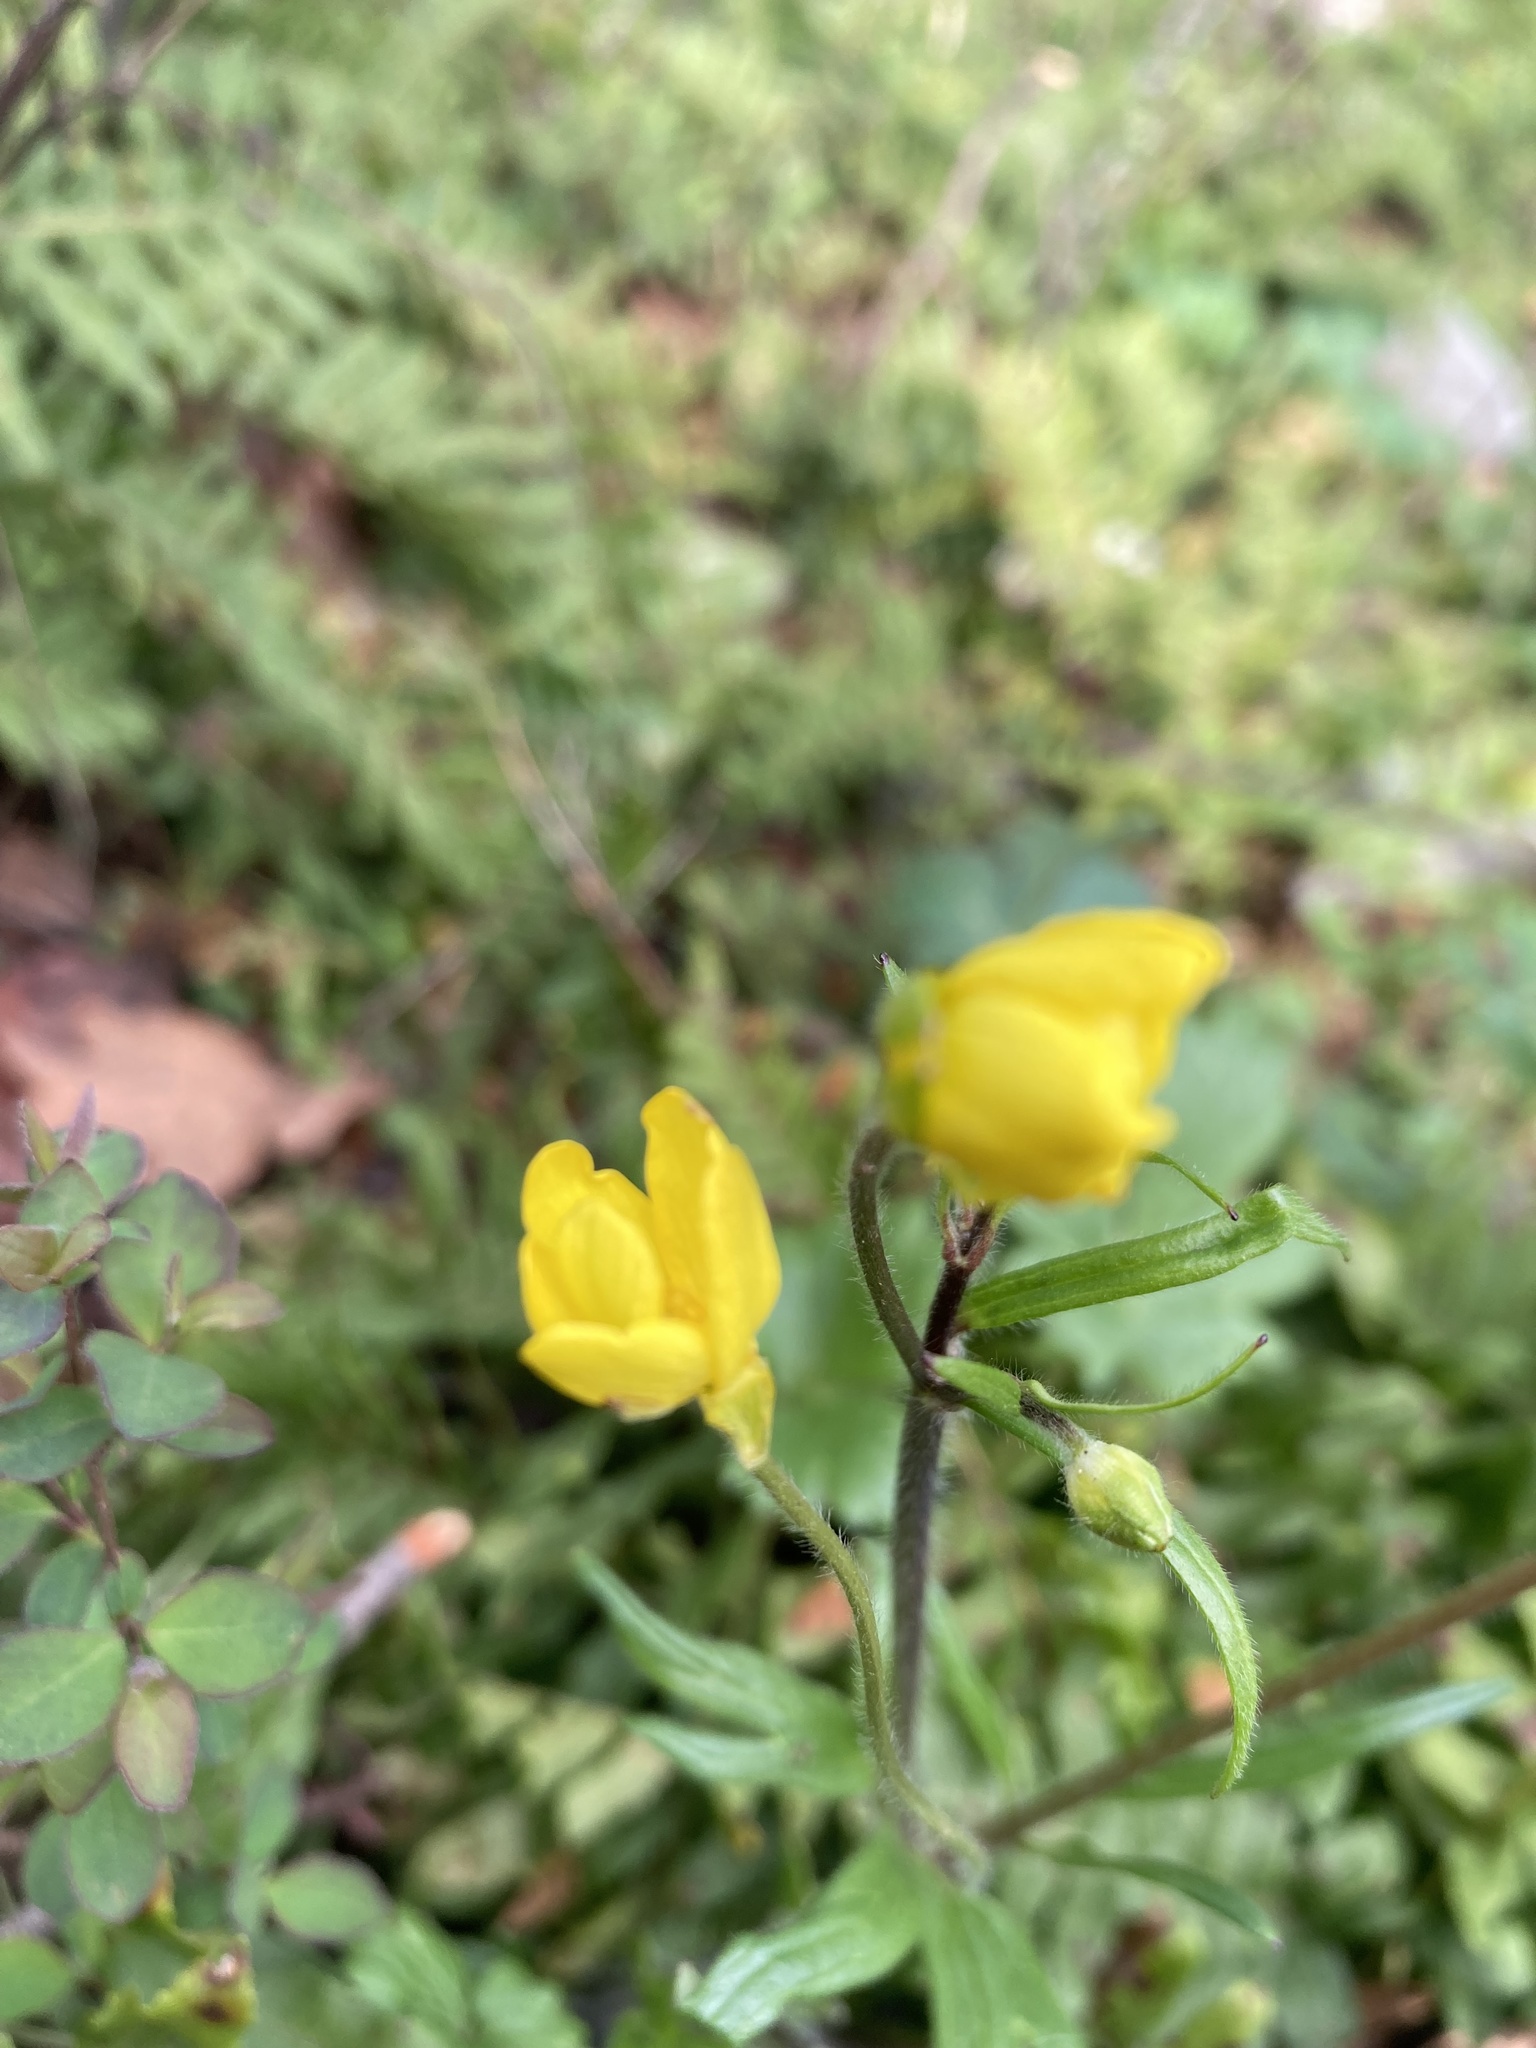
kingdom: Plantae
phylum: Tracheophyta
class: Magnoliopsida
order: Ranunculales
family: Ranunculaceae
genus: Ranunculus
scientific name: Ranunculus occidentalis
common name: Western buttercup
